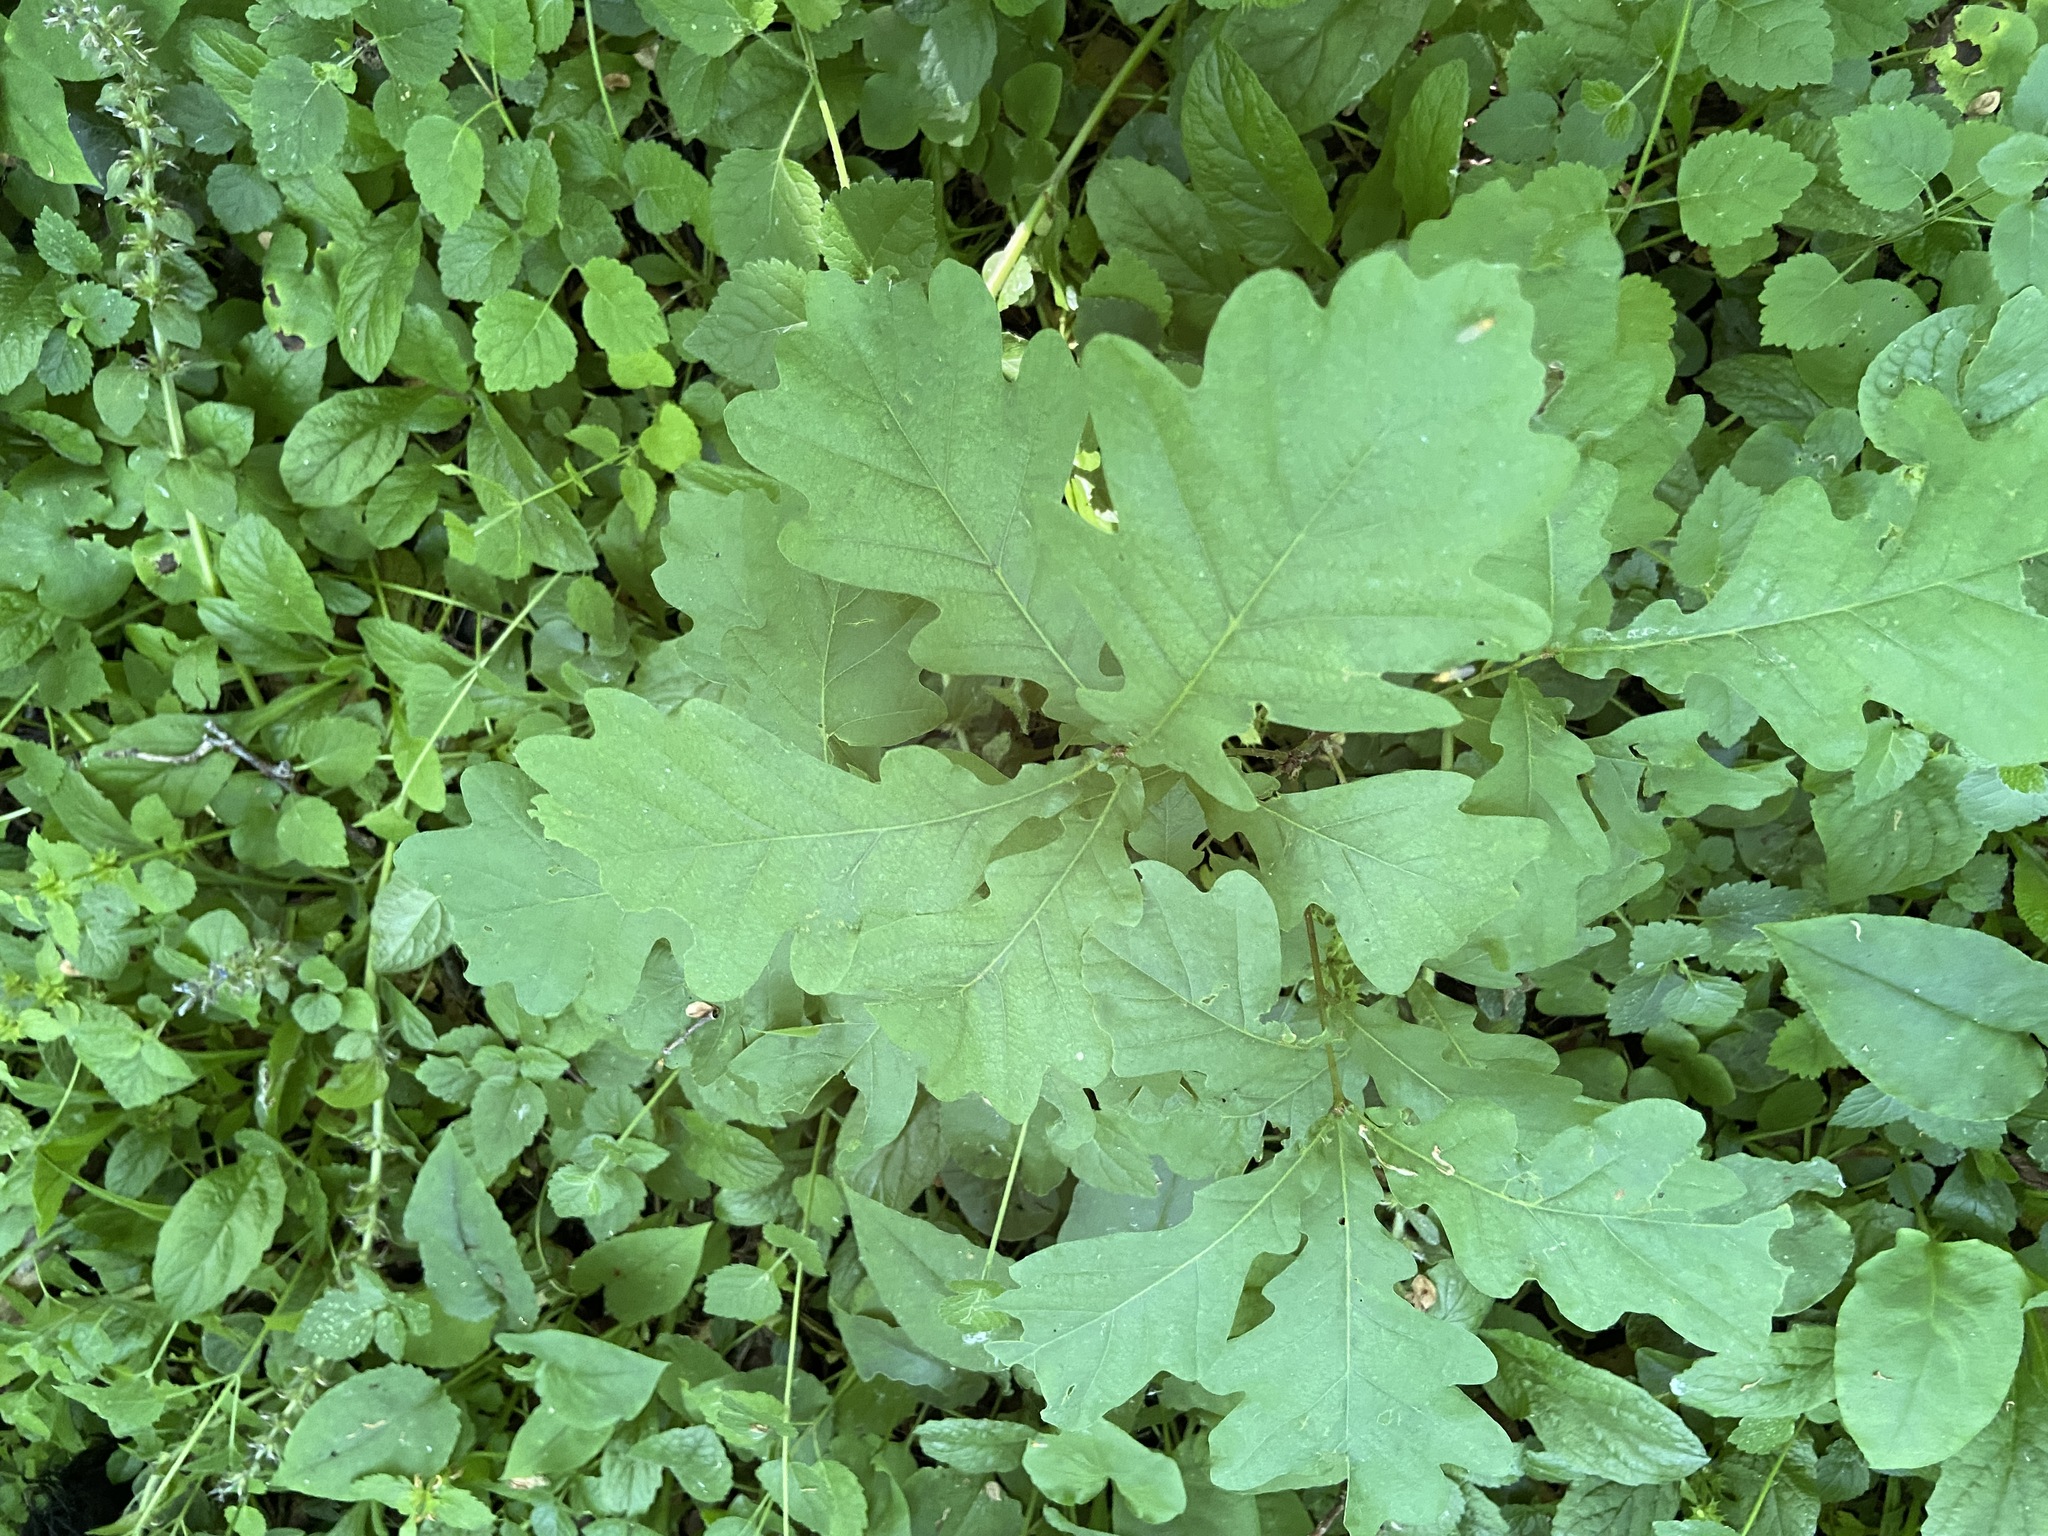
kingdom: Plantae
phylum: Tracheophyta
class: Magnoliopsida
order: Fagales
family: Fagaceae
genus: Quercus
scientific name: Quercus robur
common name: Pedunculate oak
